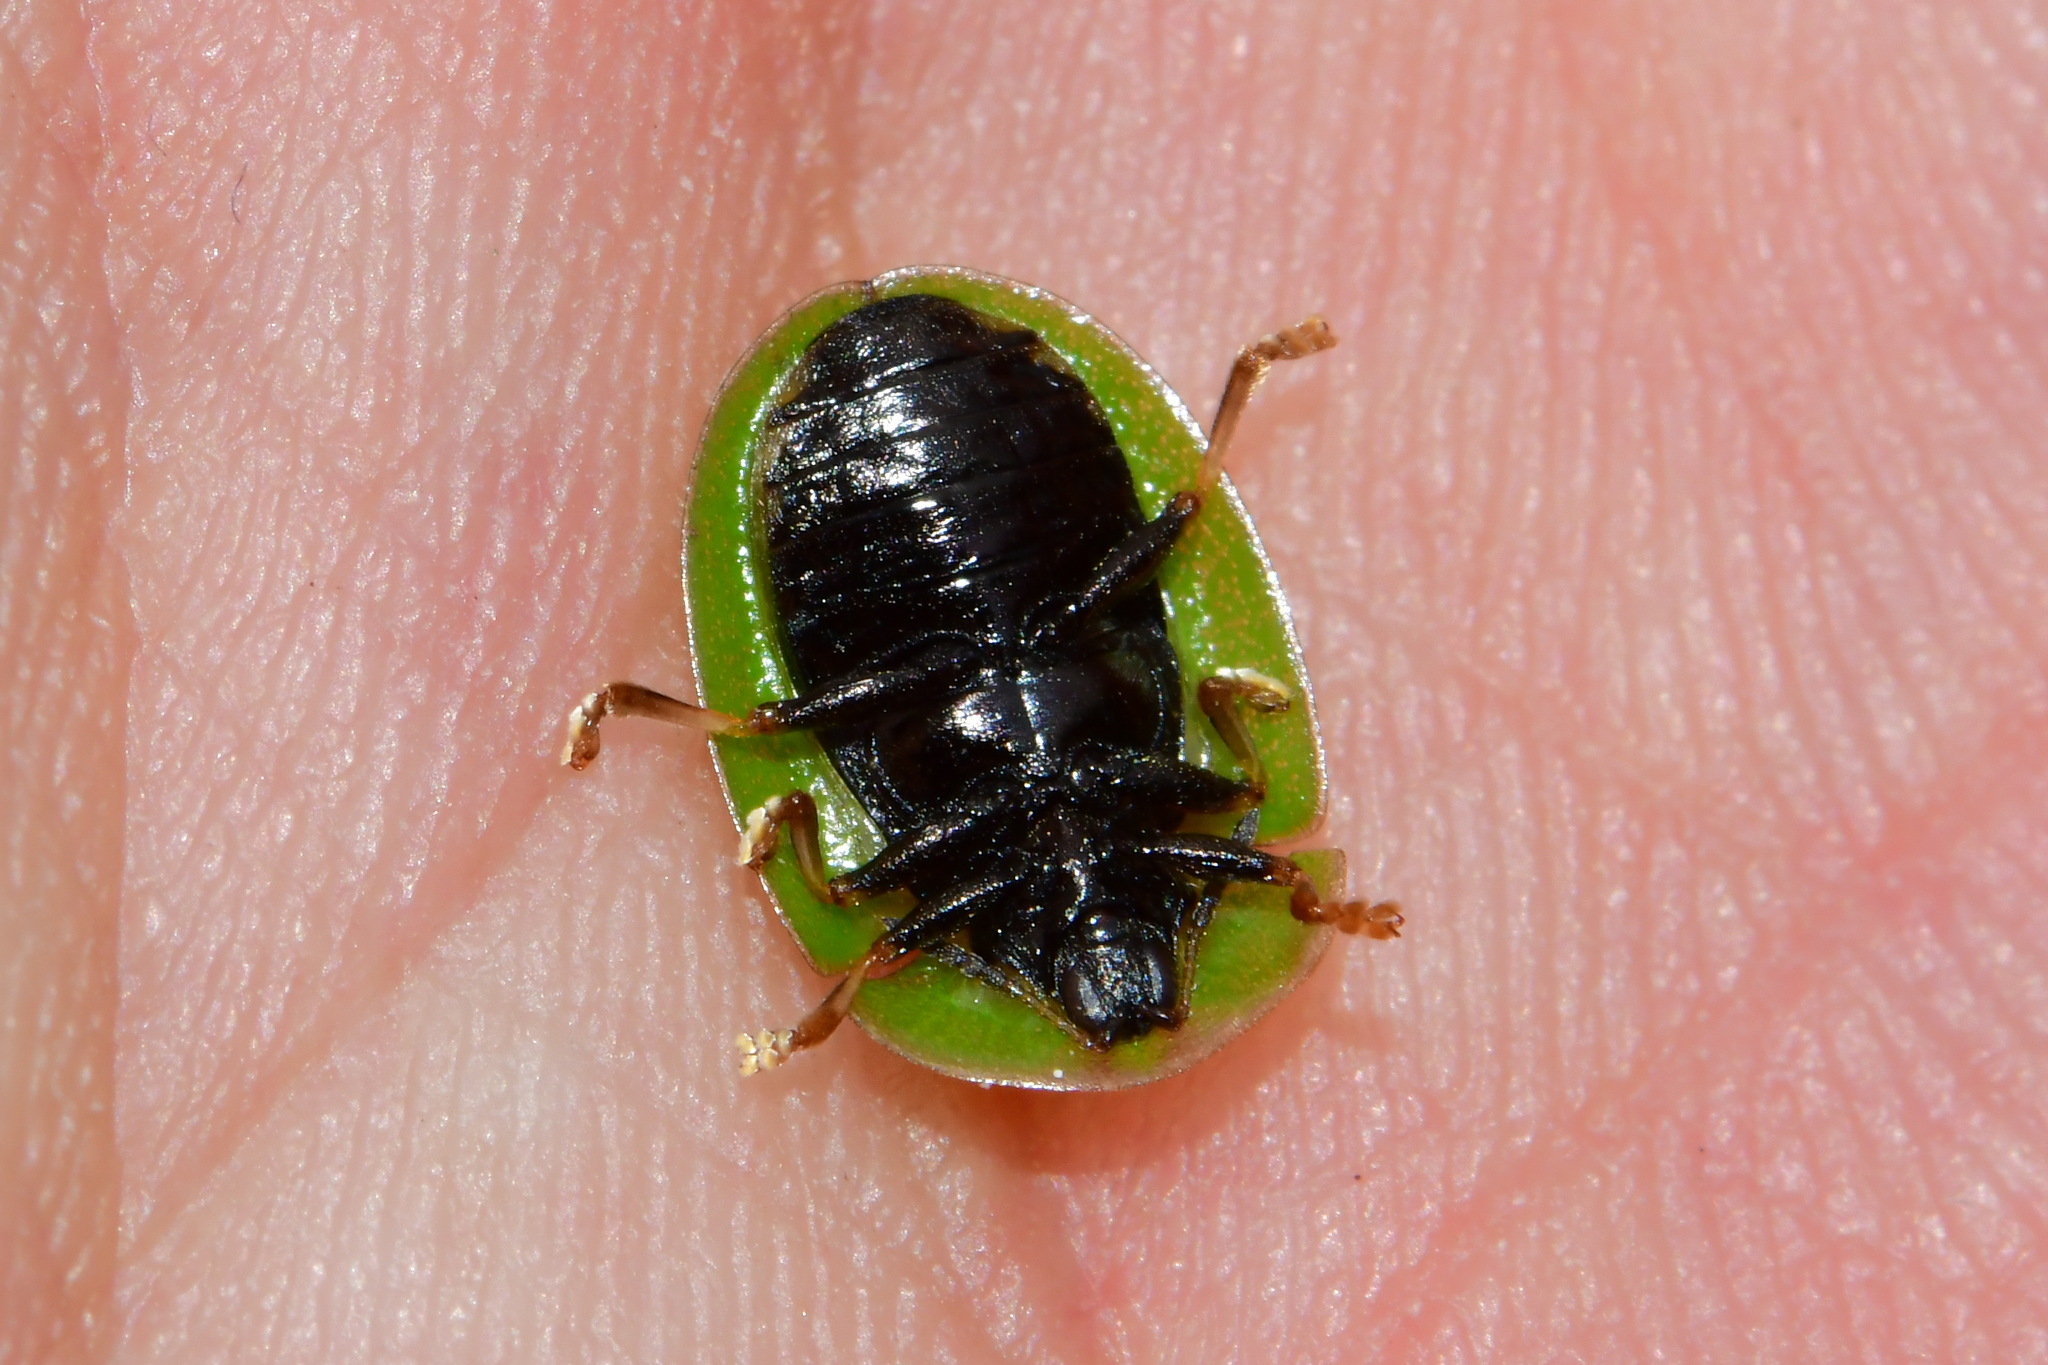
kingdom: Animalia
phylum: Arthropoda
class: Insecta
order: Coleoptera
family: Chrysomelidae
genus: Cassida
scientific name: Cassida rubiginosa
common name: Thistle tortoise beetle
